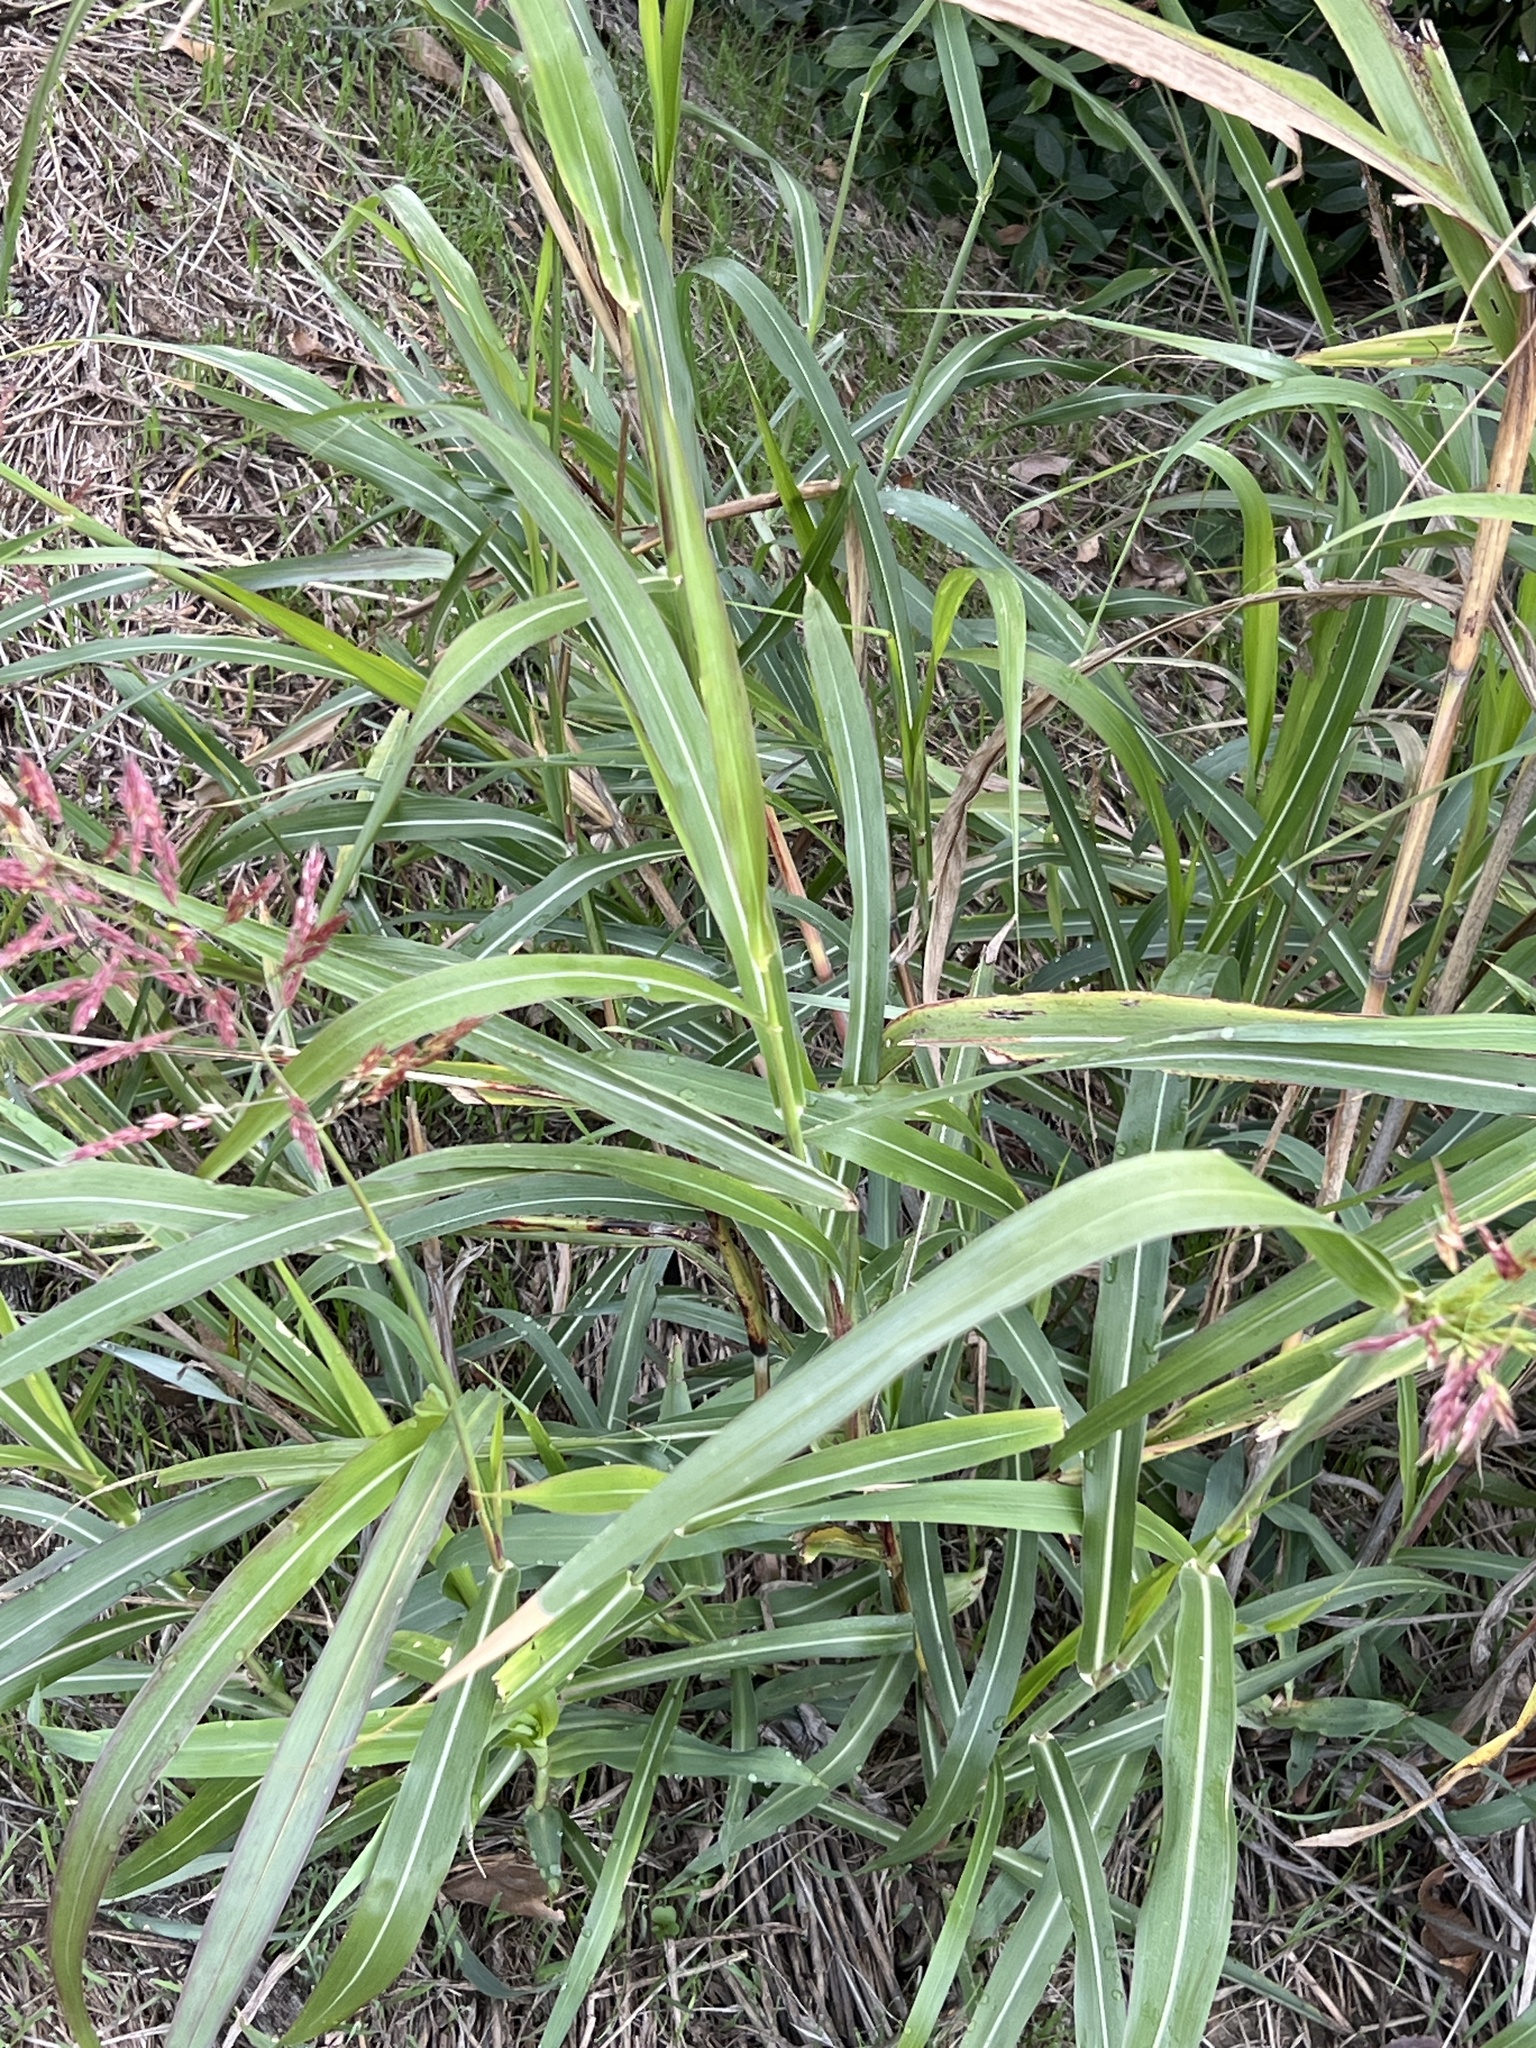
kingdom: Plantae
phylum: Tracheophyta
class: Liliopsida
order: Poales
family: Poaceae
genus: Sorghum
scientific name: Sorghum halepense
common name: Johnson-grass
